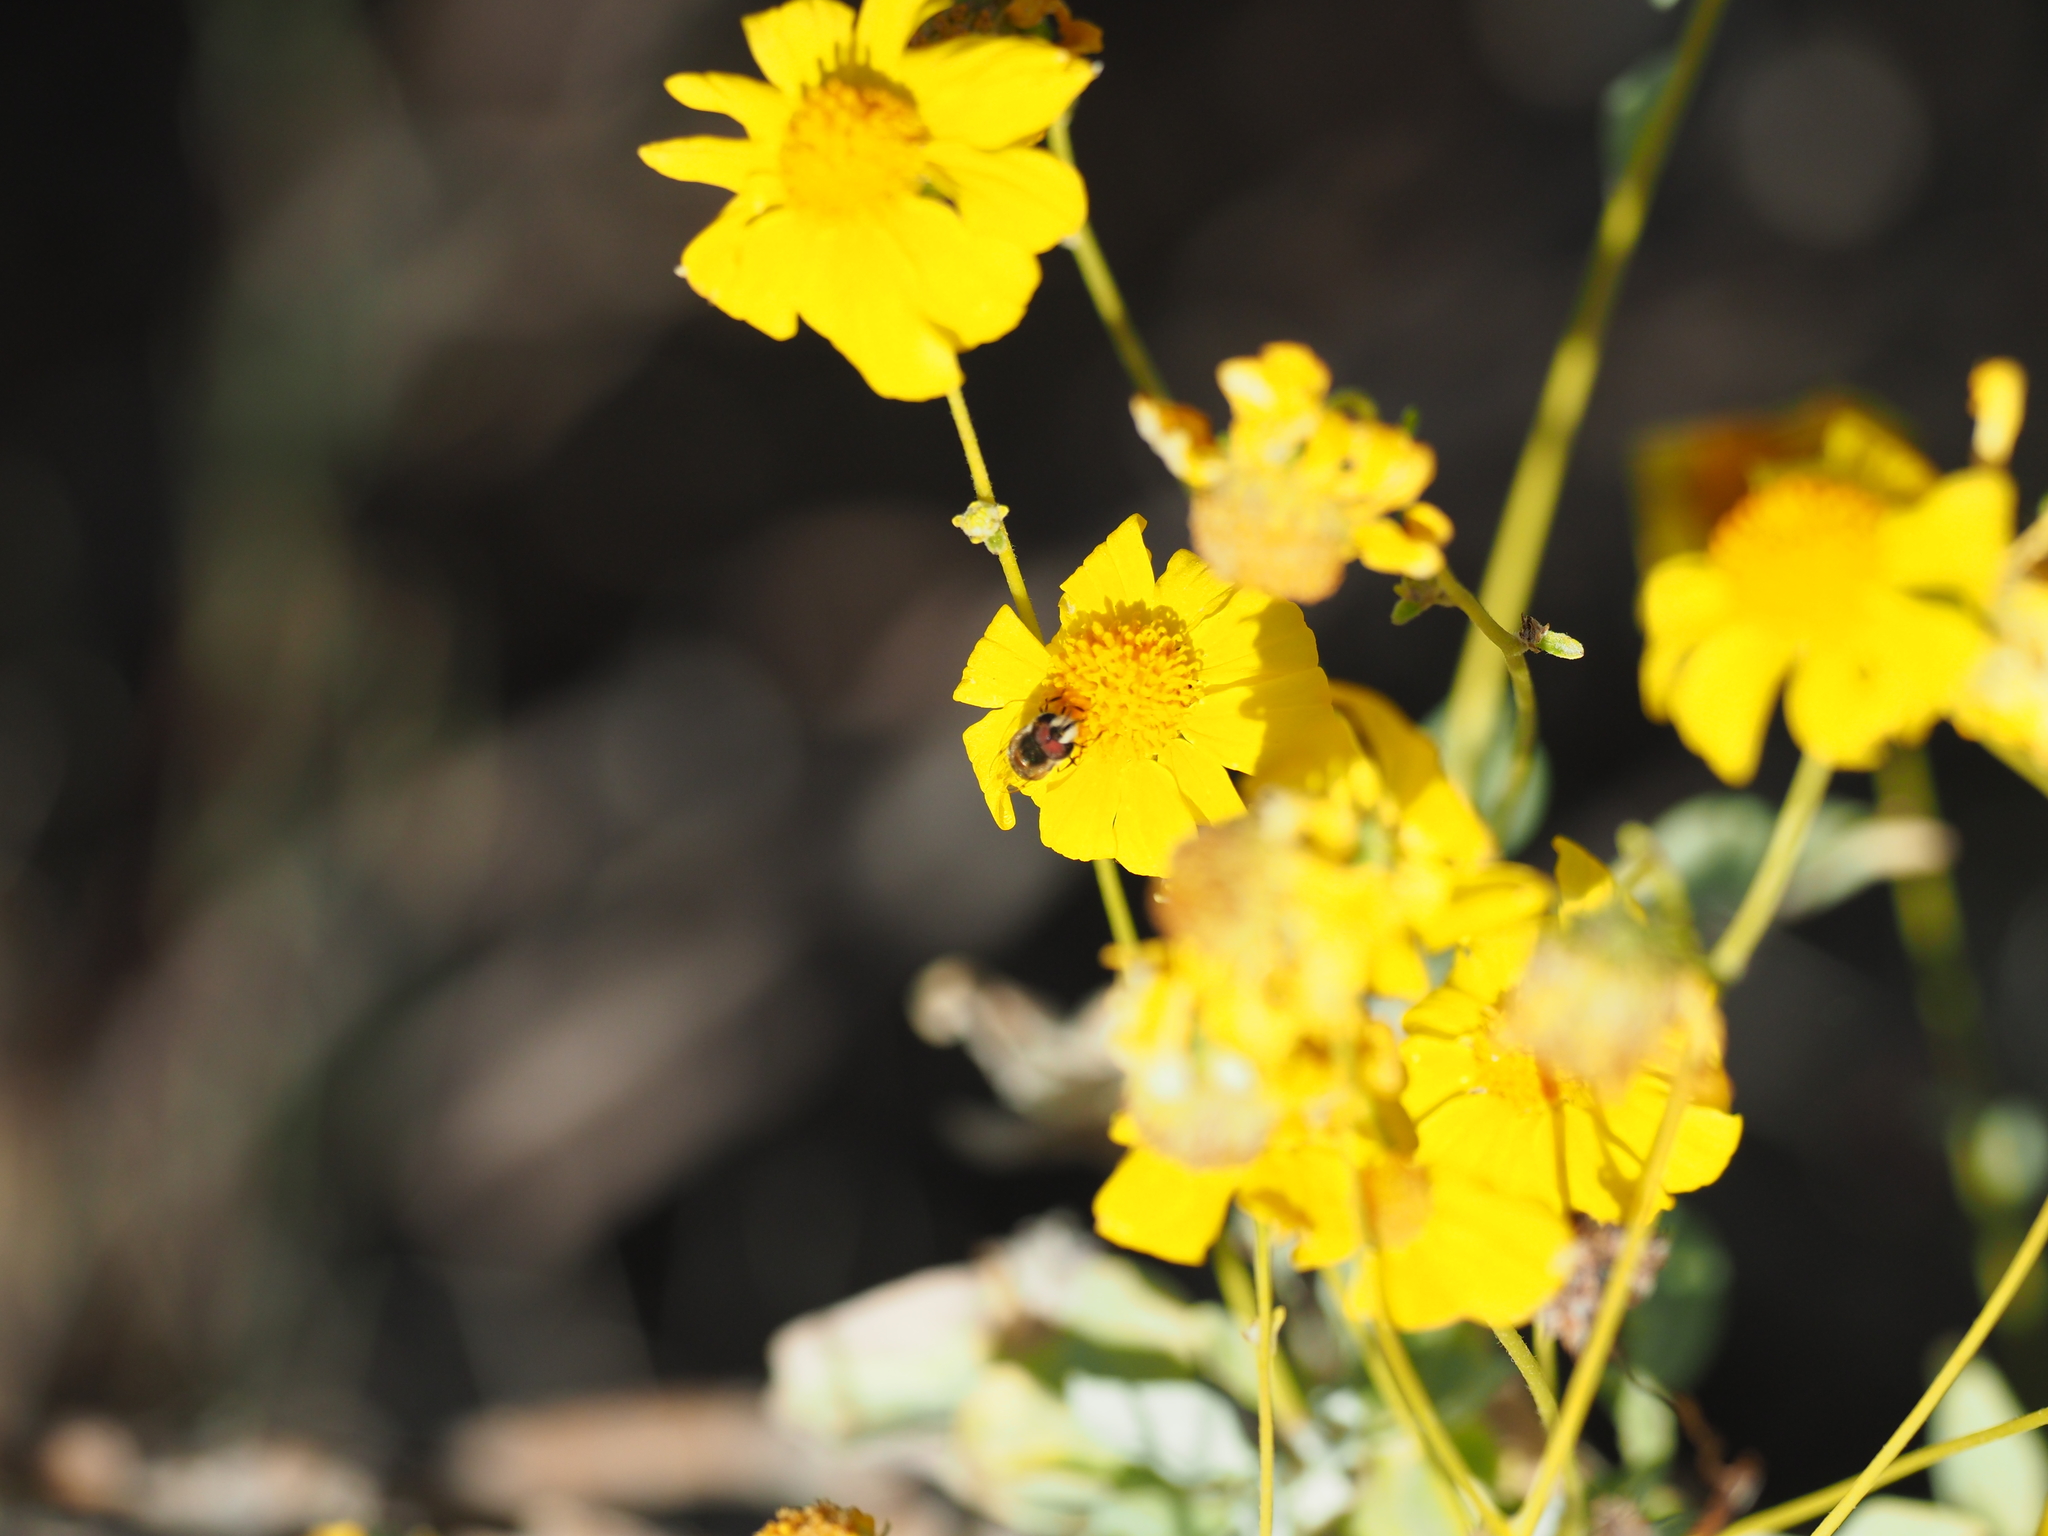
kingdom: Animalia
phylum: Arthropoda
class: Insecta
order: Diptera
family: Syrphidae
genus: Copestylum
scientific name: Copestylum
